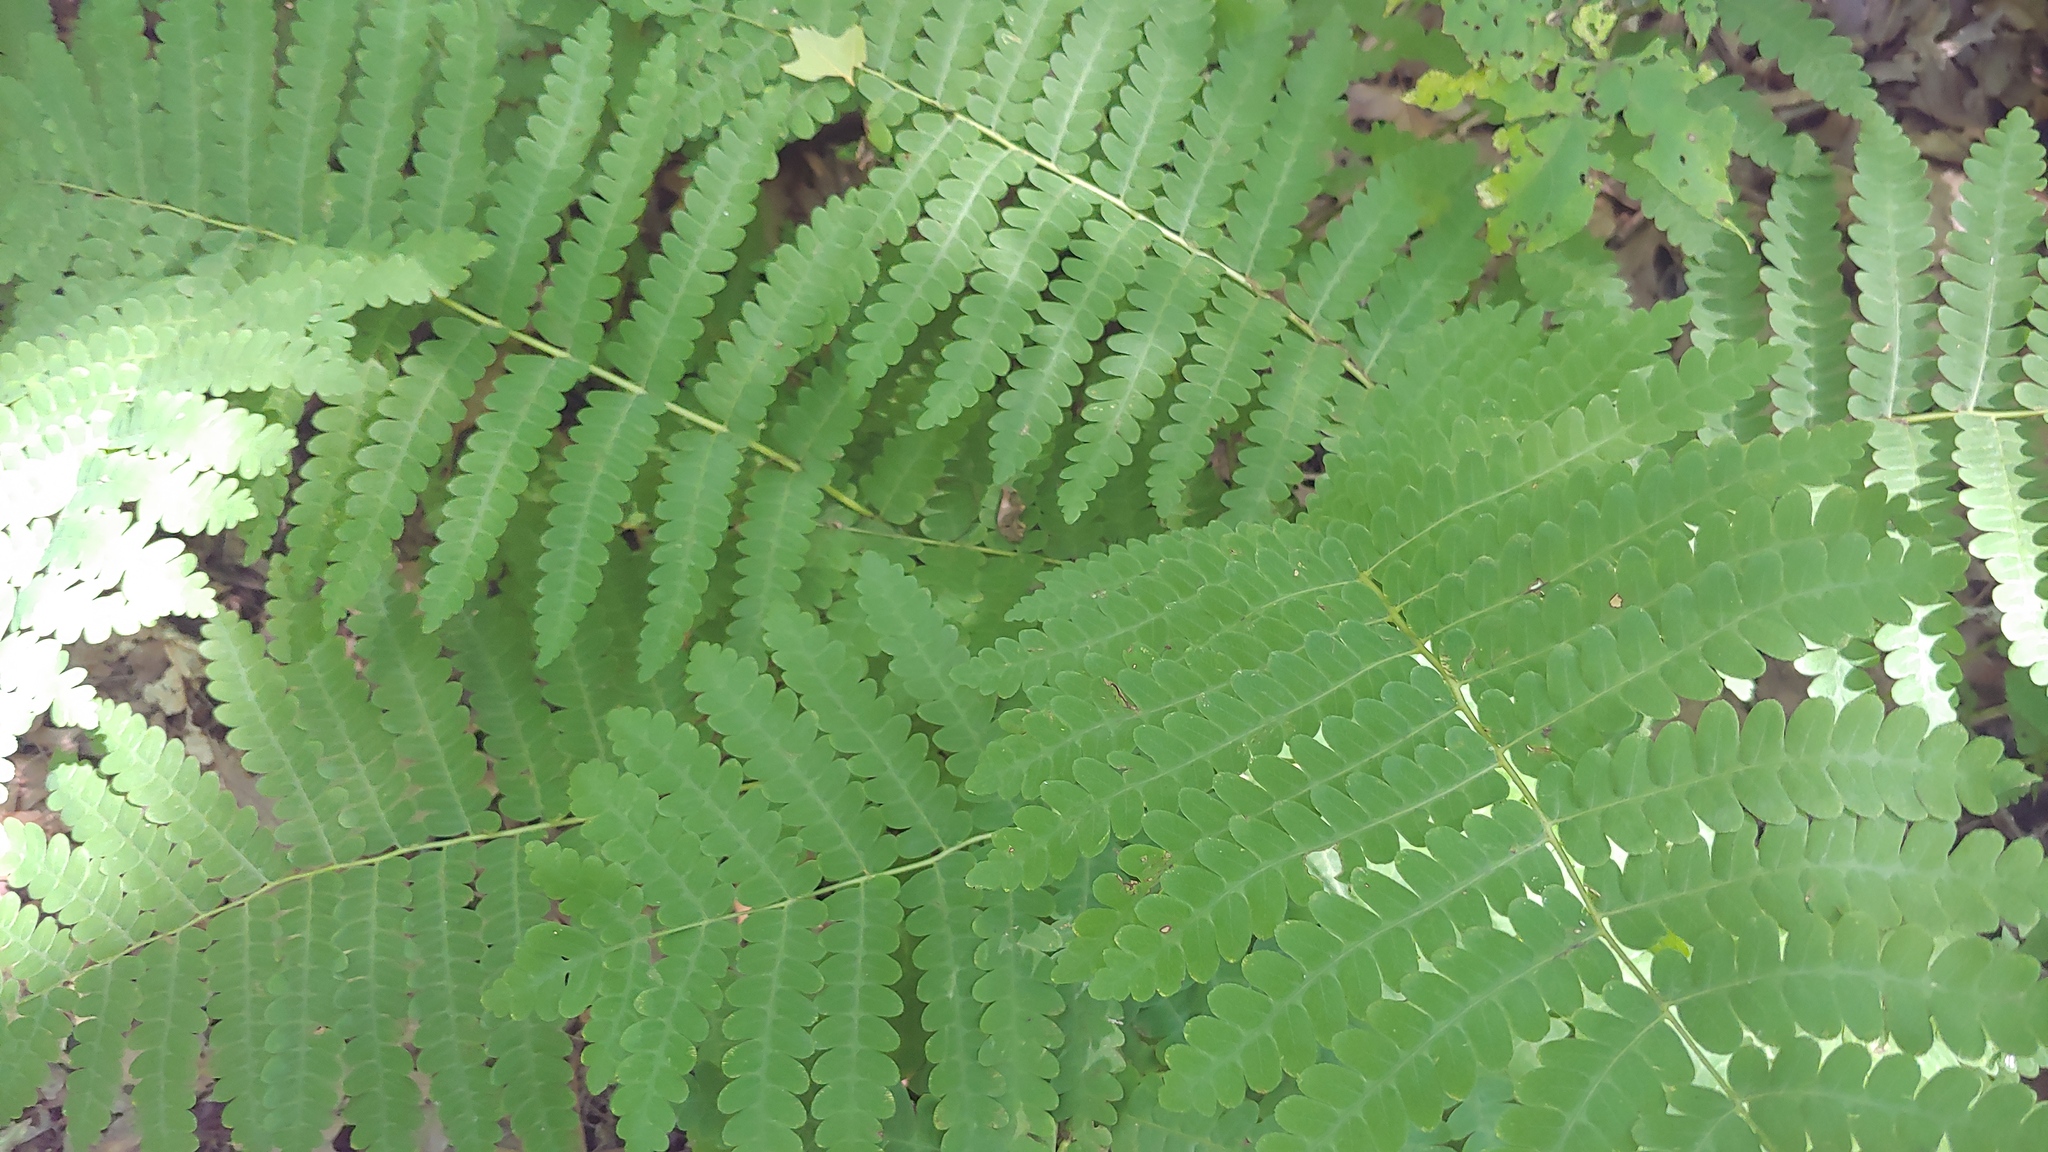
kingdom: Plantae
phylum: Tracheophyta
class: Polypodiopsida
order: Osmundales
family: Osmundaceae
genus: Claytosmunda
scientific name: Claytosmunda claytoniana
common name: Clayton's fern
